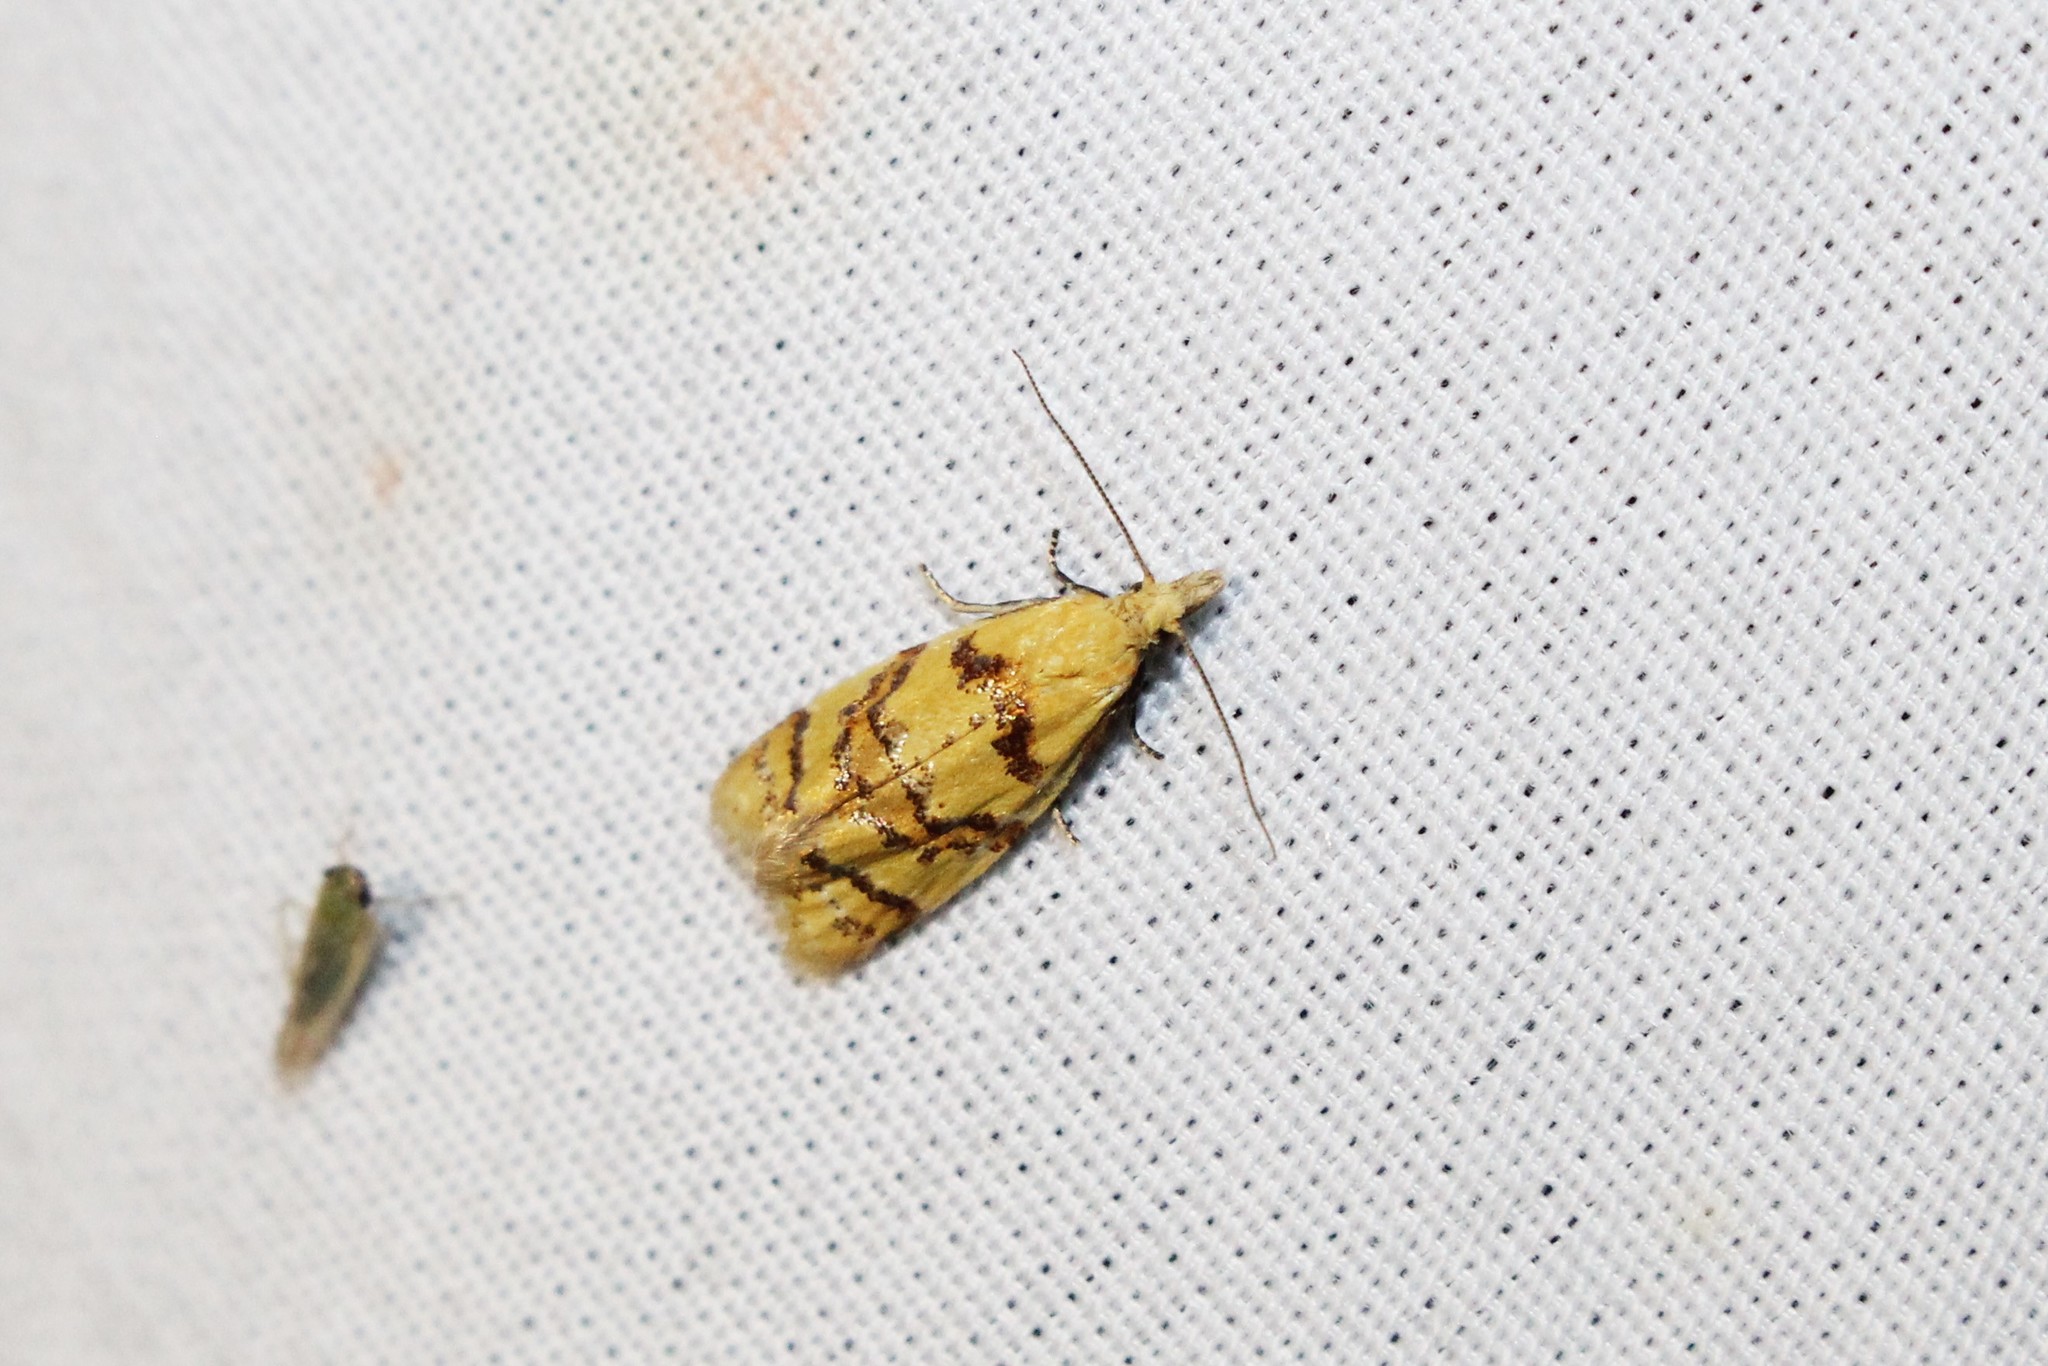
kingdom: Animalia
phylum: Arthropoda
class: Insecta
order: Lepidoptera
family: Tortricidae
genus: Phtheochroa
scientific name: Phtheochroa vitellinana
